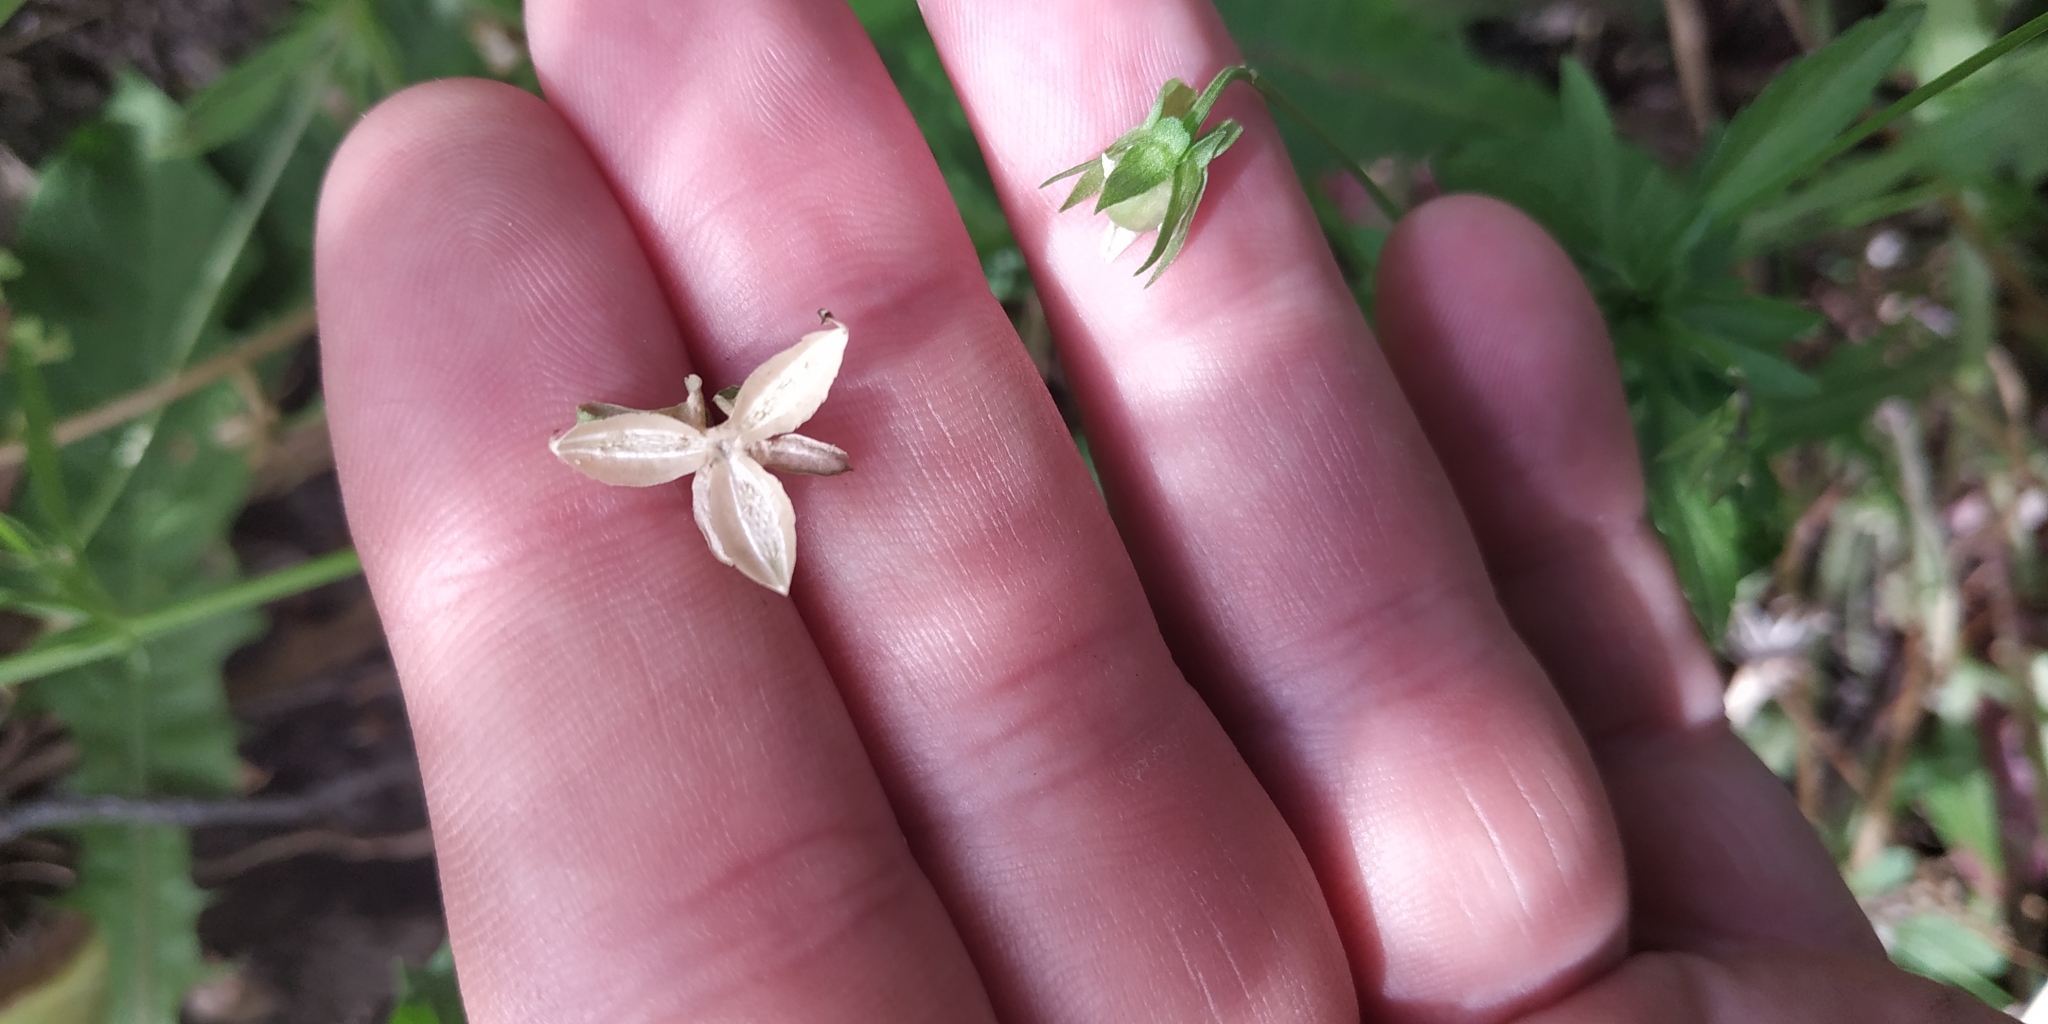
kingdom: Plantae
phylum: Tracheophyta
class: Magnoliopsida
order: Malpighiales
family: Violaceae
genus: Viola
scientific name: Viola arvensis
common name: Field pansy
